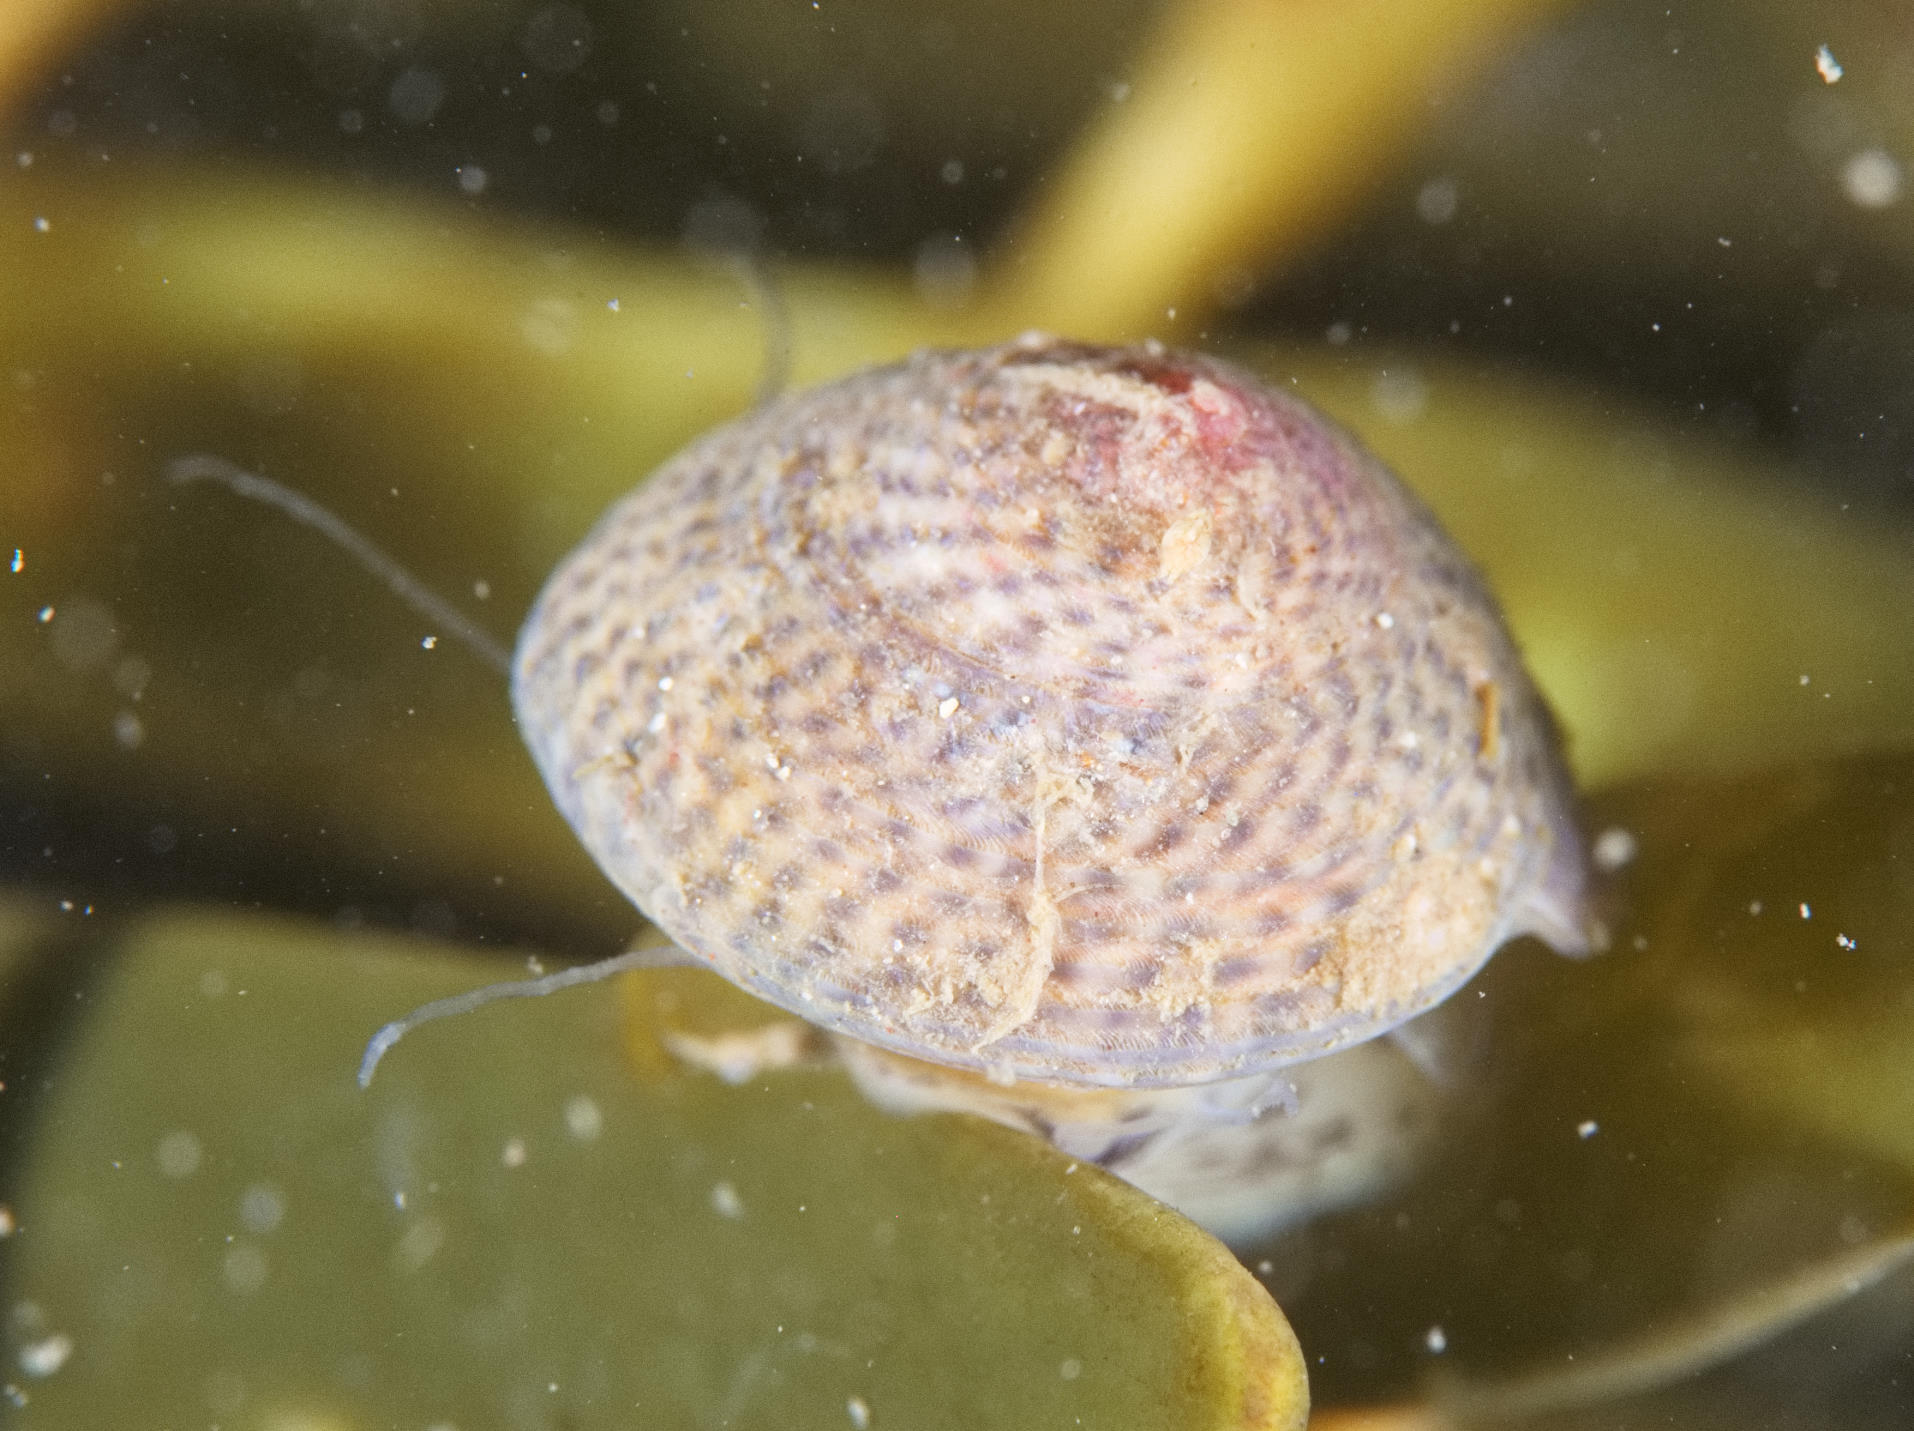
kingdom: Animalia
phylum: Mollusca
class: Gastropoda
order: Trochida
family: Trochidae
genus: Steromphala
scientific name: Steromphala cineraria
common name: Grey top shell
